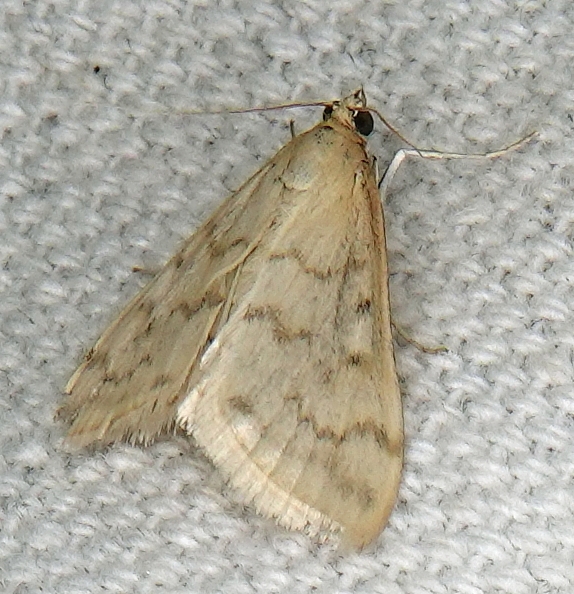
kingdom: Animalia
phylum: Arthropoda
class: Insecta
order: Lepidoptera
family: Crambidae
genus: Hahncappsia
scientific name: Hahncappsia pergilvalis
